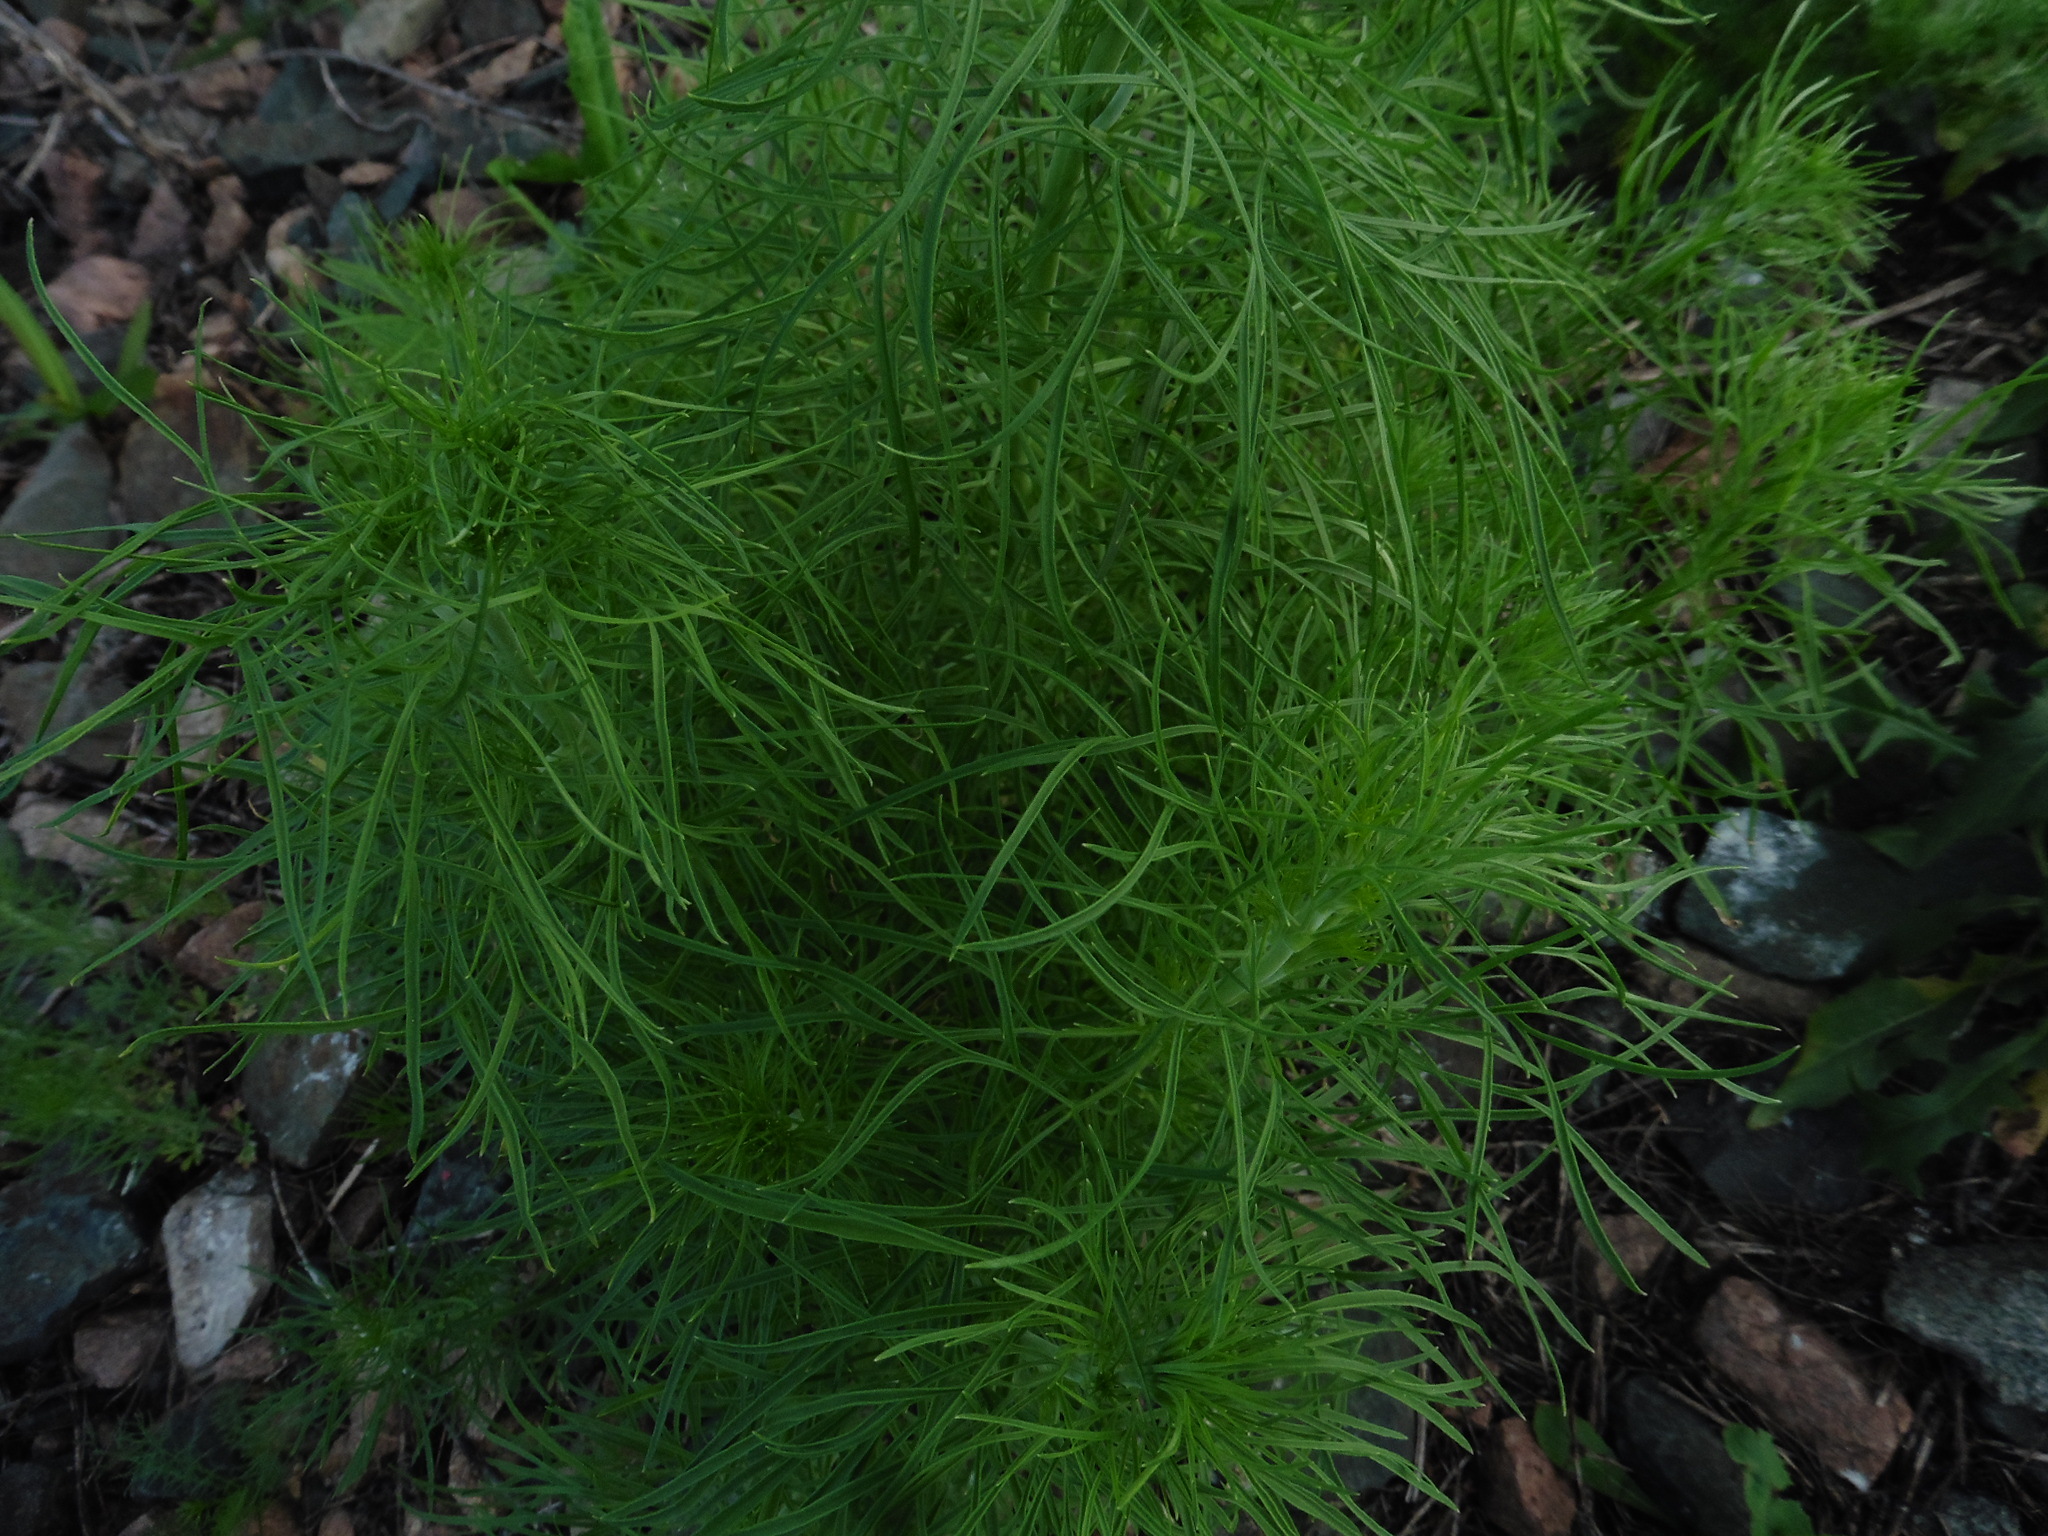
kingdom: Plantae
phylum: Tracheophyta
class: Magnoliopsida
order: Ranunculales
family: Ranunculaceae
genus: Delphinium
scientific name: Delphinium consolida
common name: Branching larkspur
